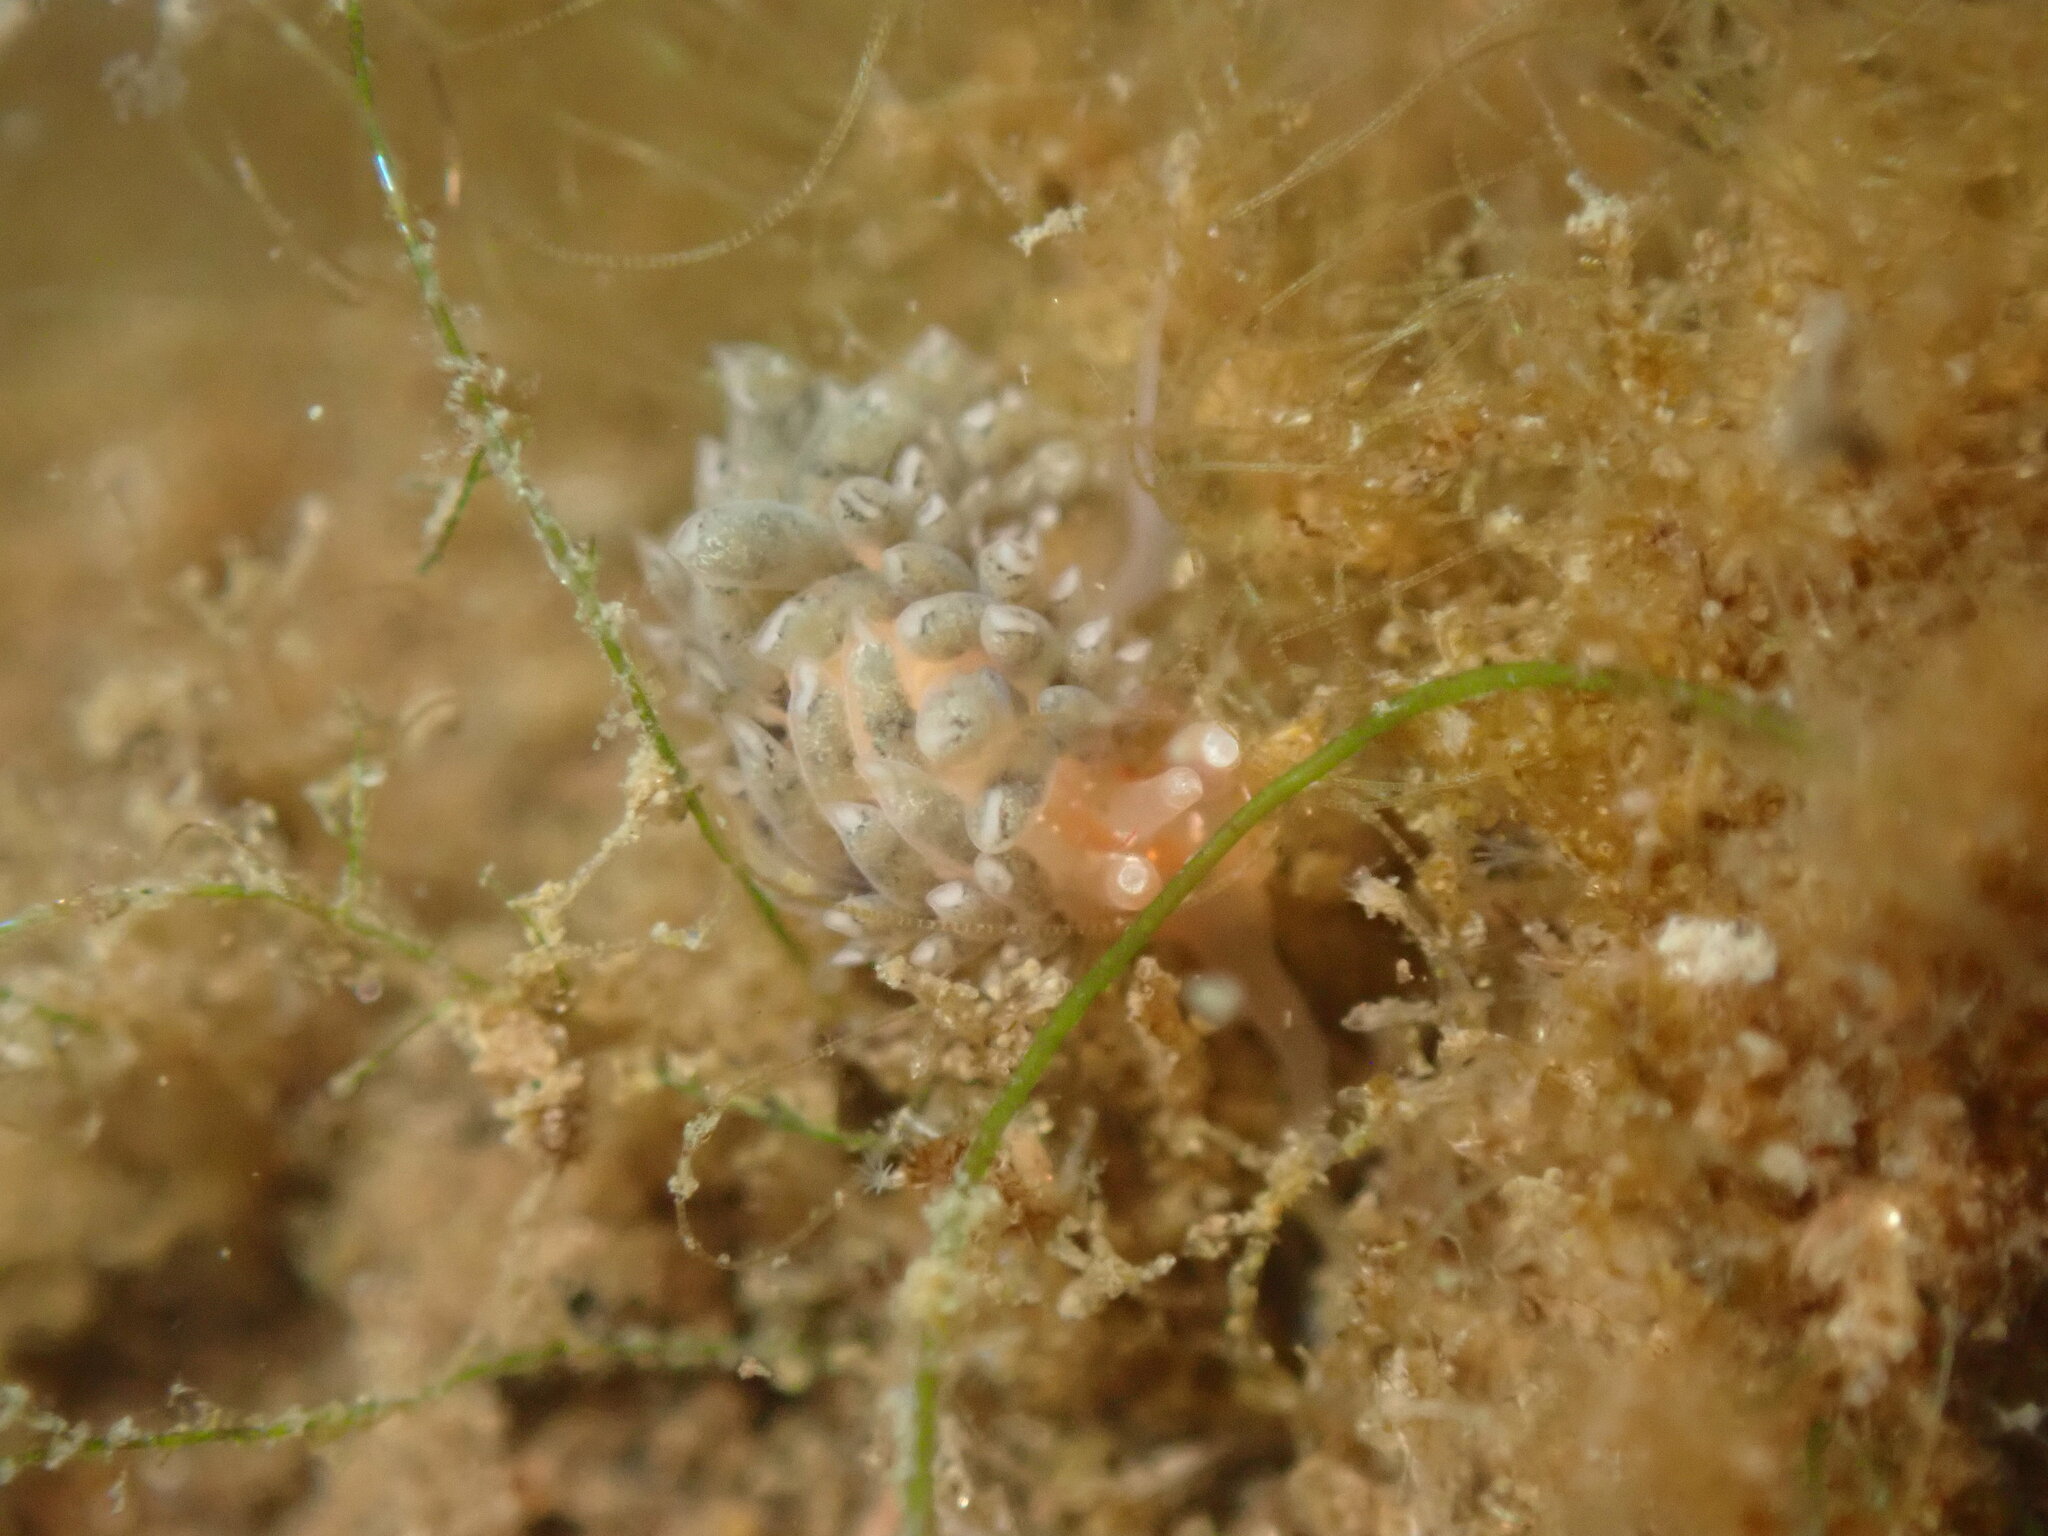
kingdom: Animalia
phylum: Mollusca
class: Gastropoda
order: Nudibranchia
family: Facelinidae
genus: Emarcusia
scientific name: Emarcusia morroensis
